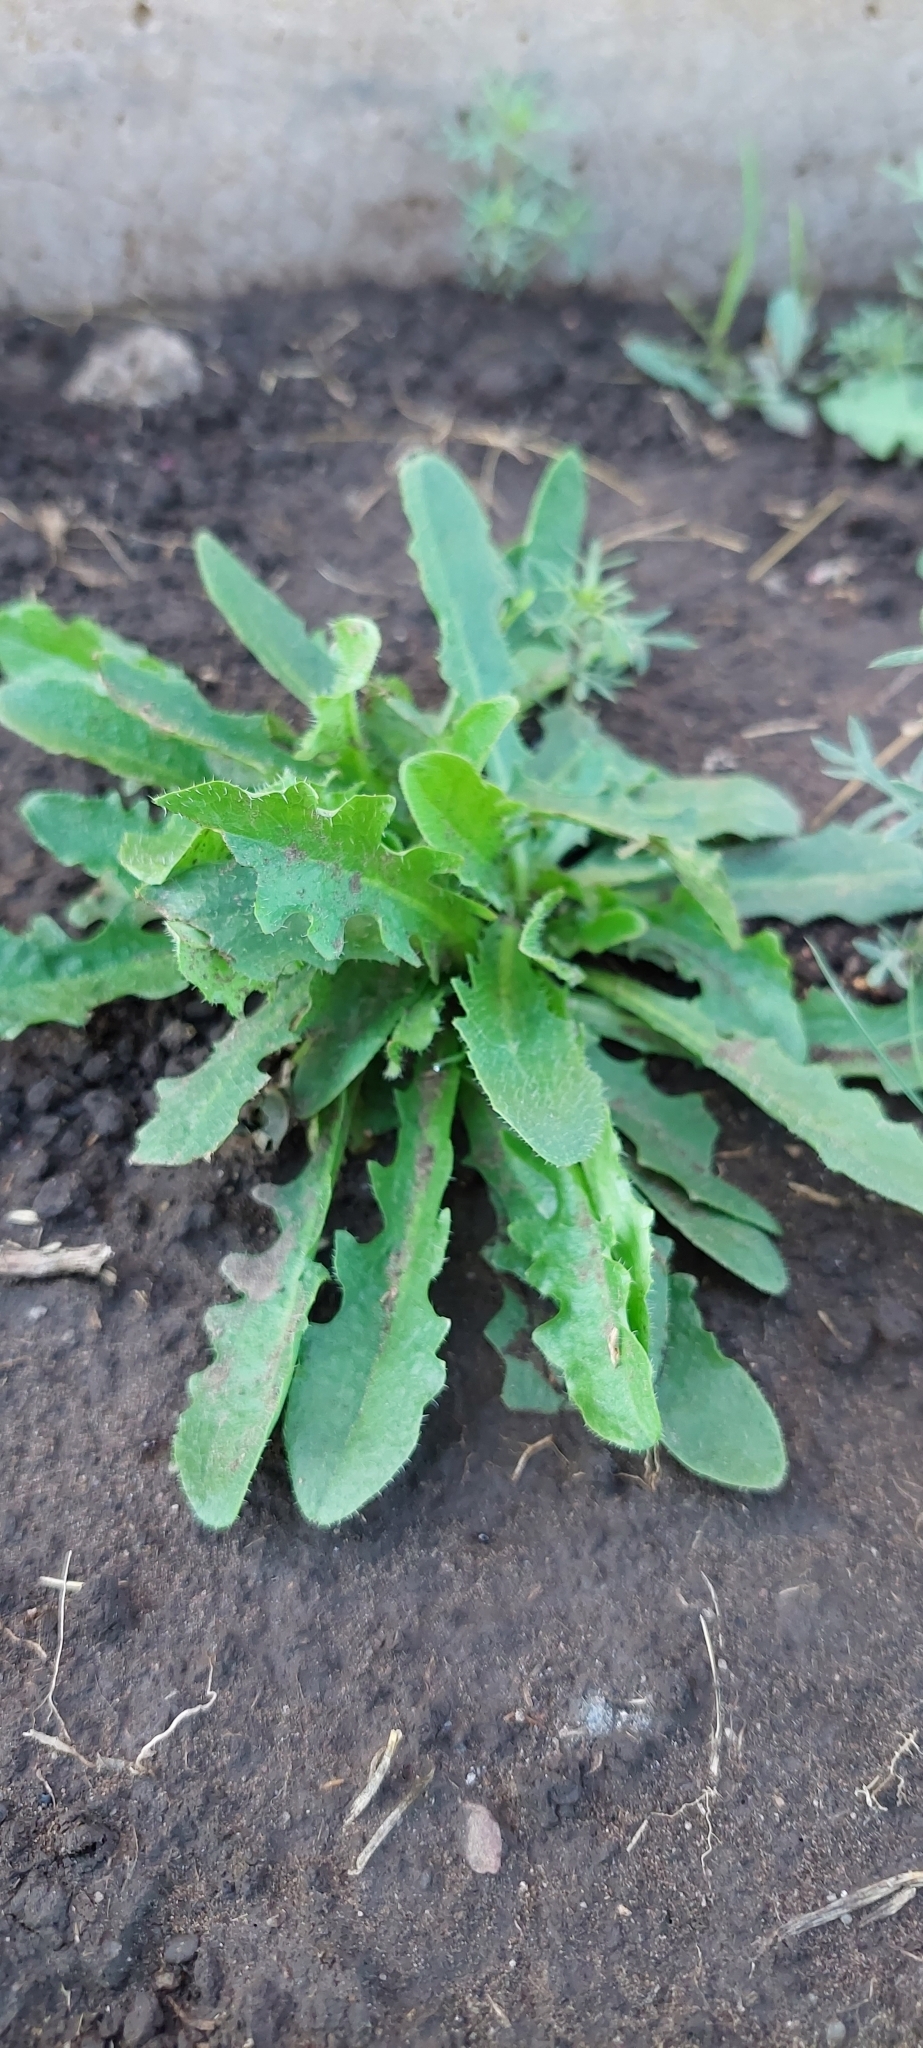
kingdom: Plantae
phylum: Tracheophyta
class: Magnoliopsida
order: Asterales
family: Asteraceae
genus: Hypochaeris
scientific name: Hypochaeris radicata
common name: Flatweed
